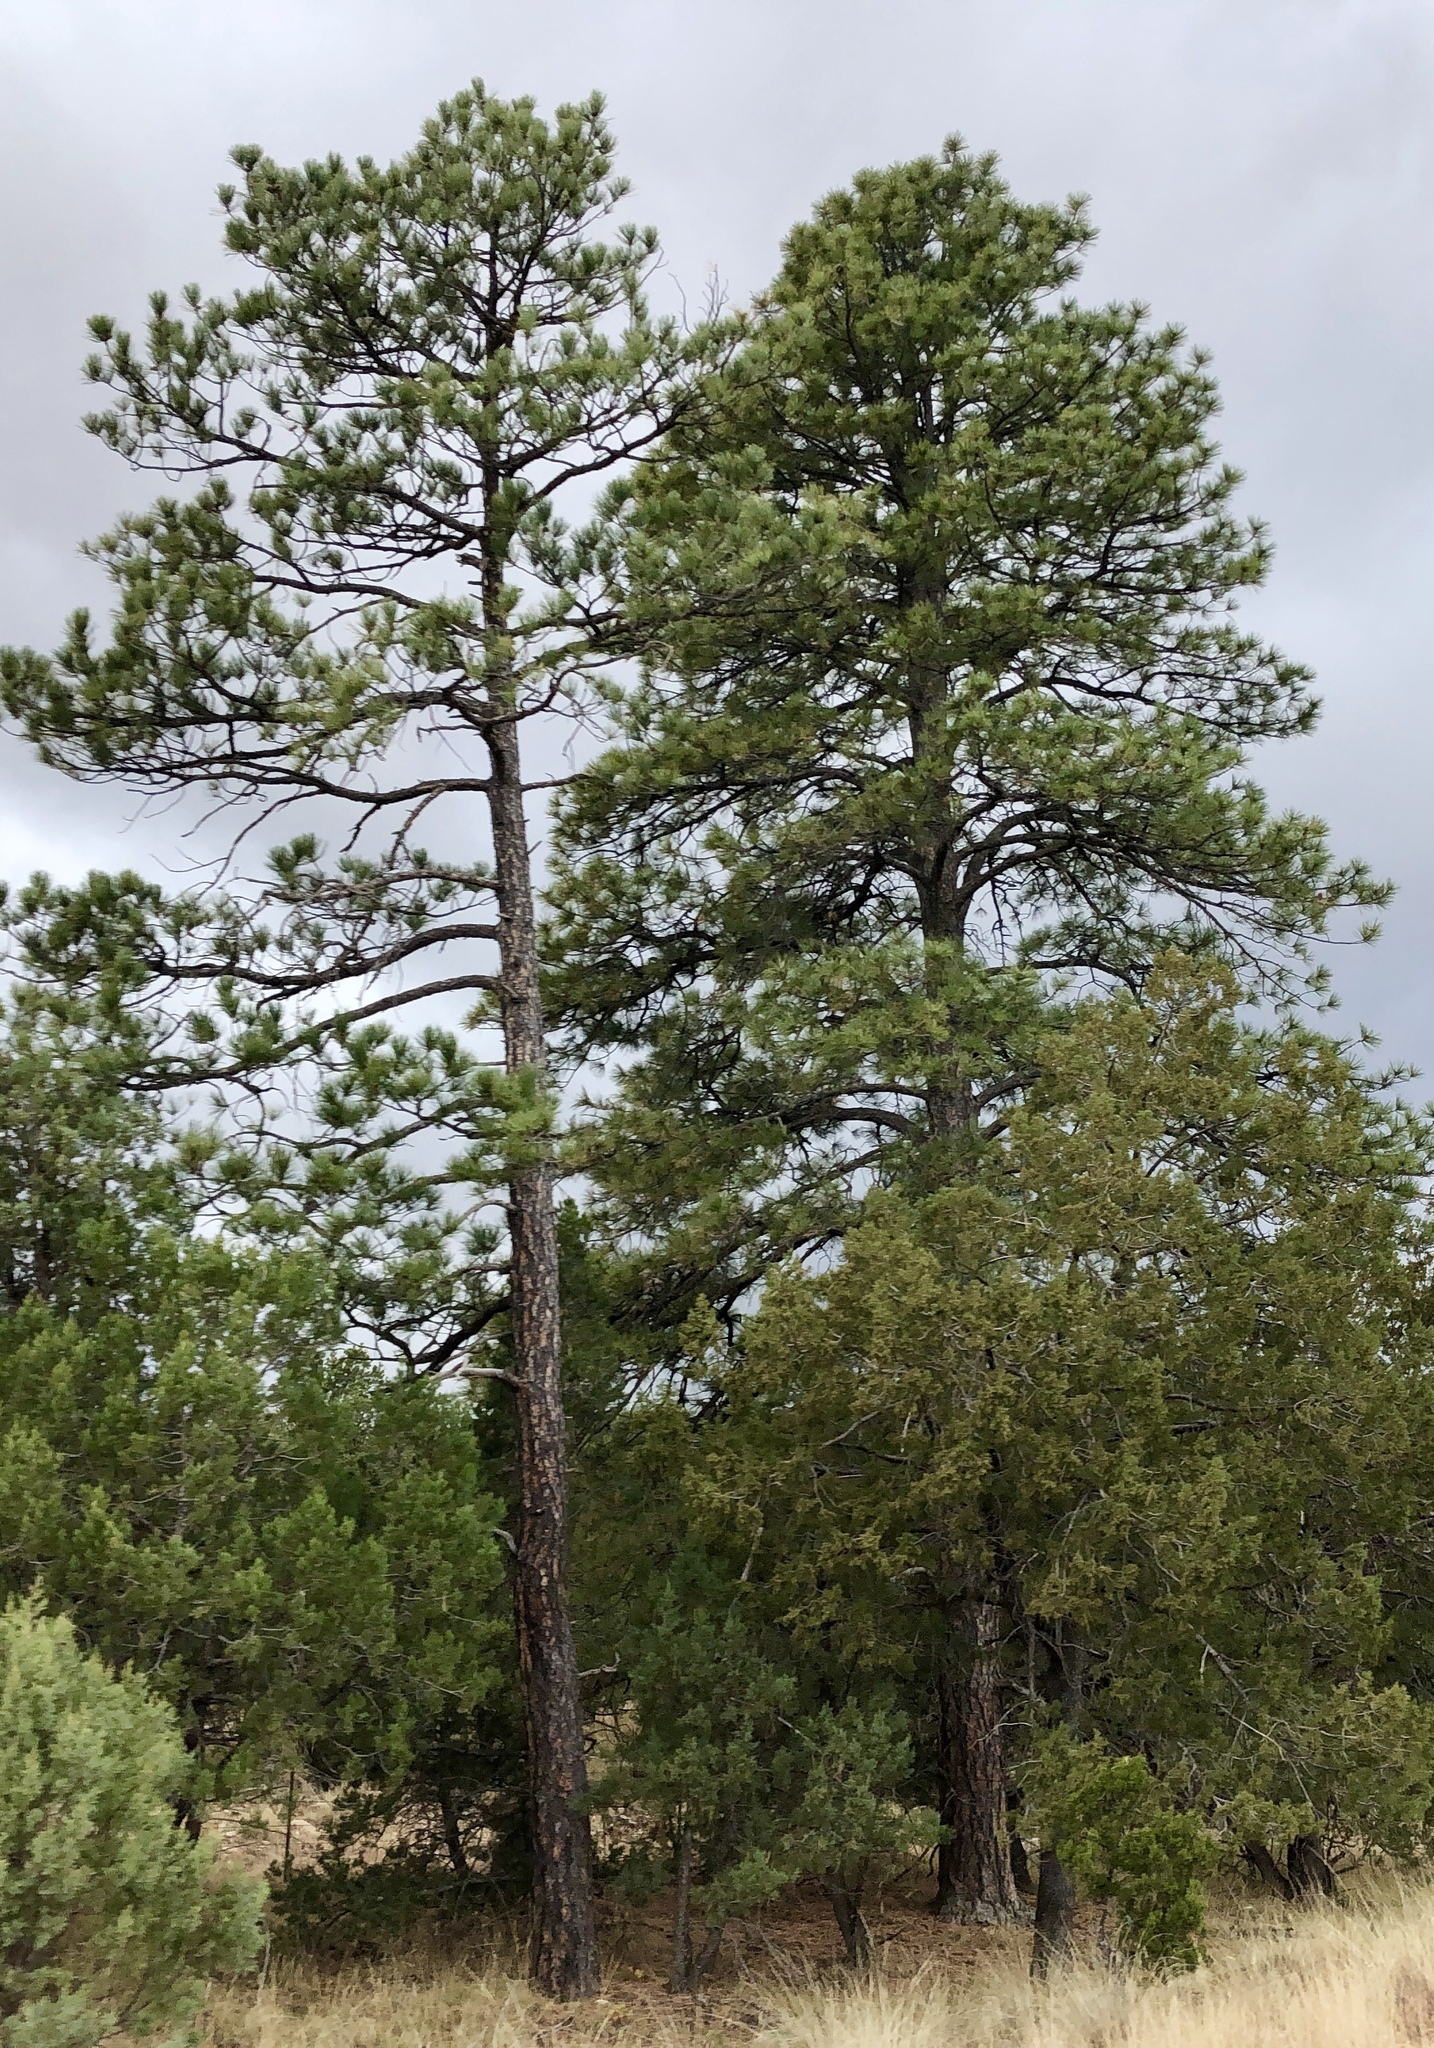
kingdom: Plantae
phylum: Tracheophyta
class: Pinopsida
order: Pinales
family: Pinaceae
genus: Pinus
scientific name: Pinus ponderosa
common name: Western yellow-pine
